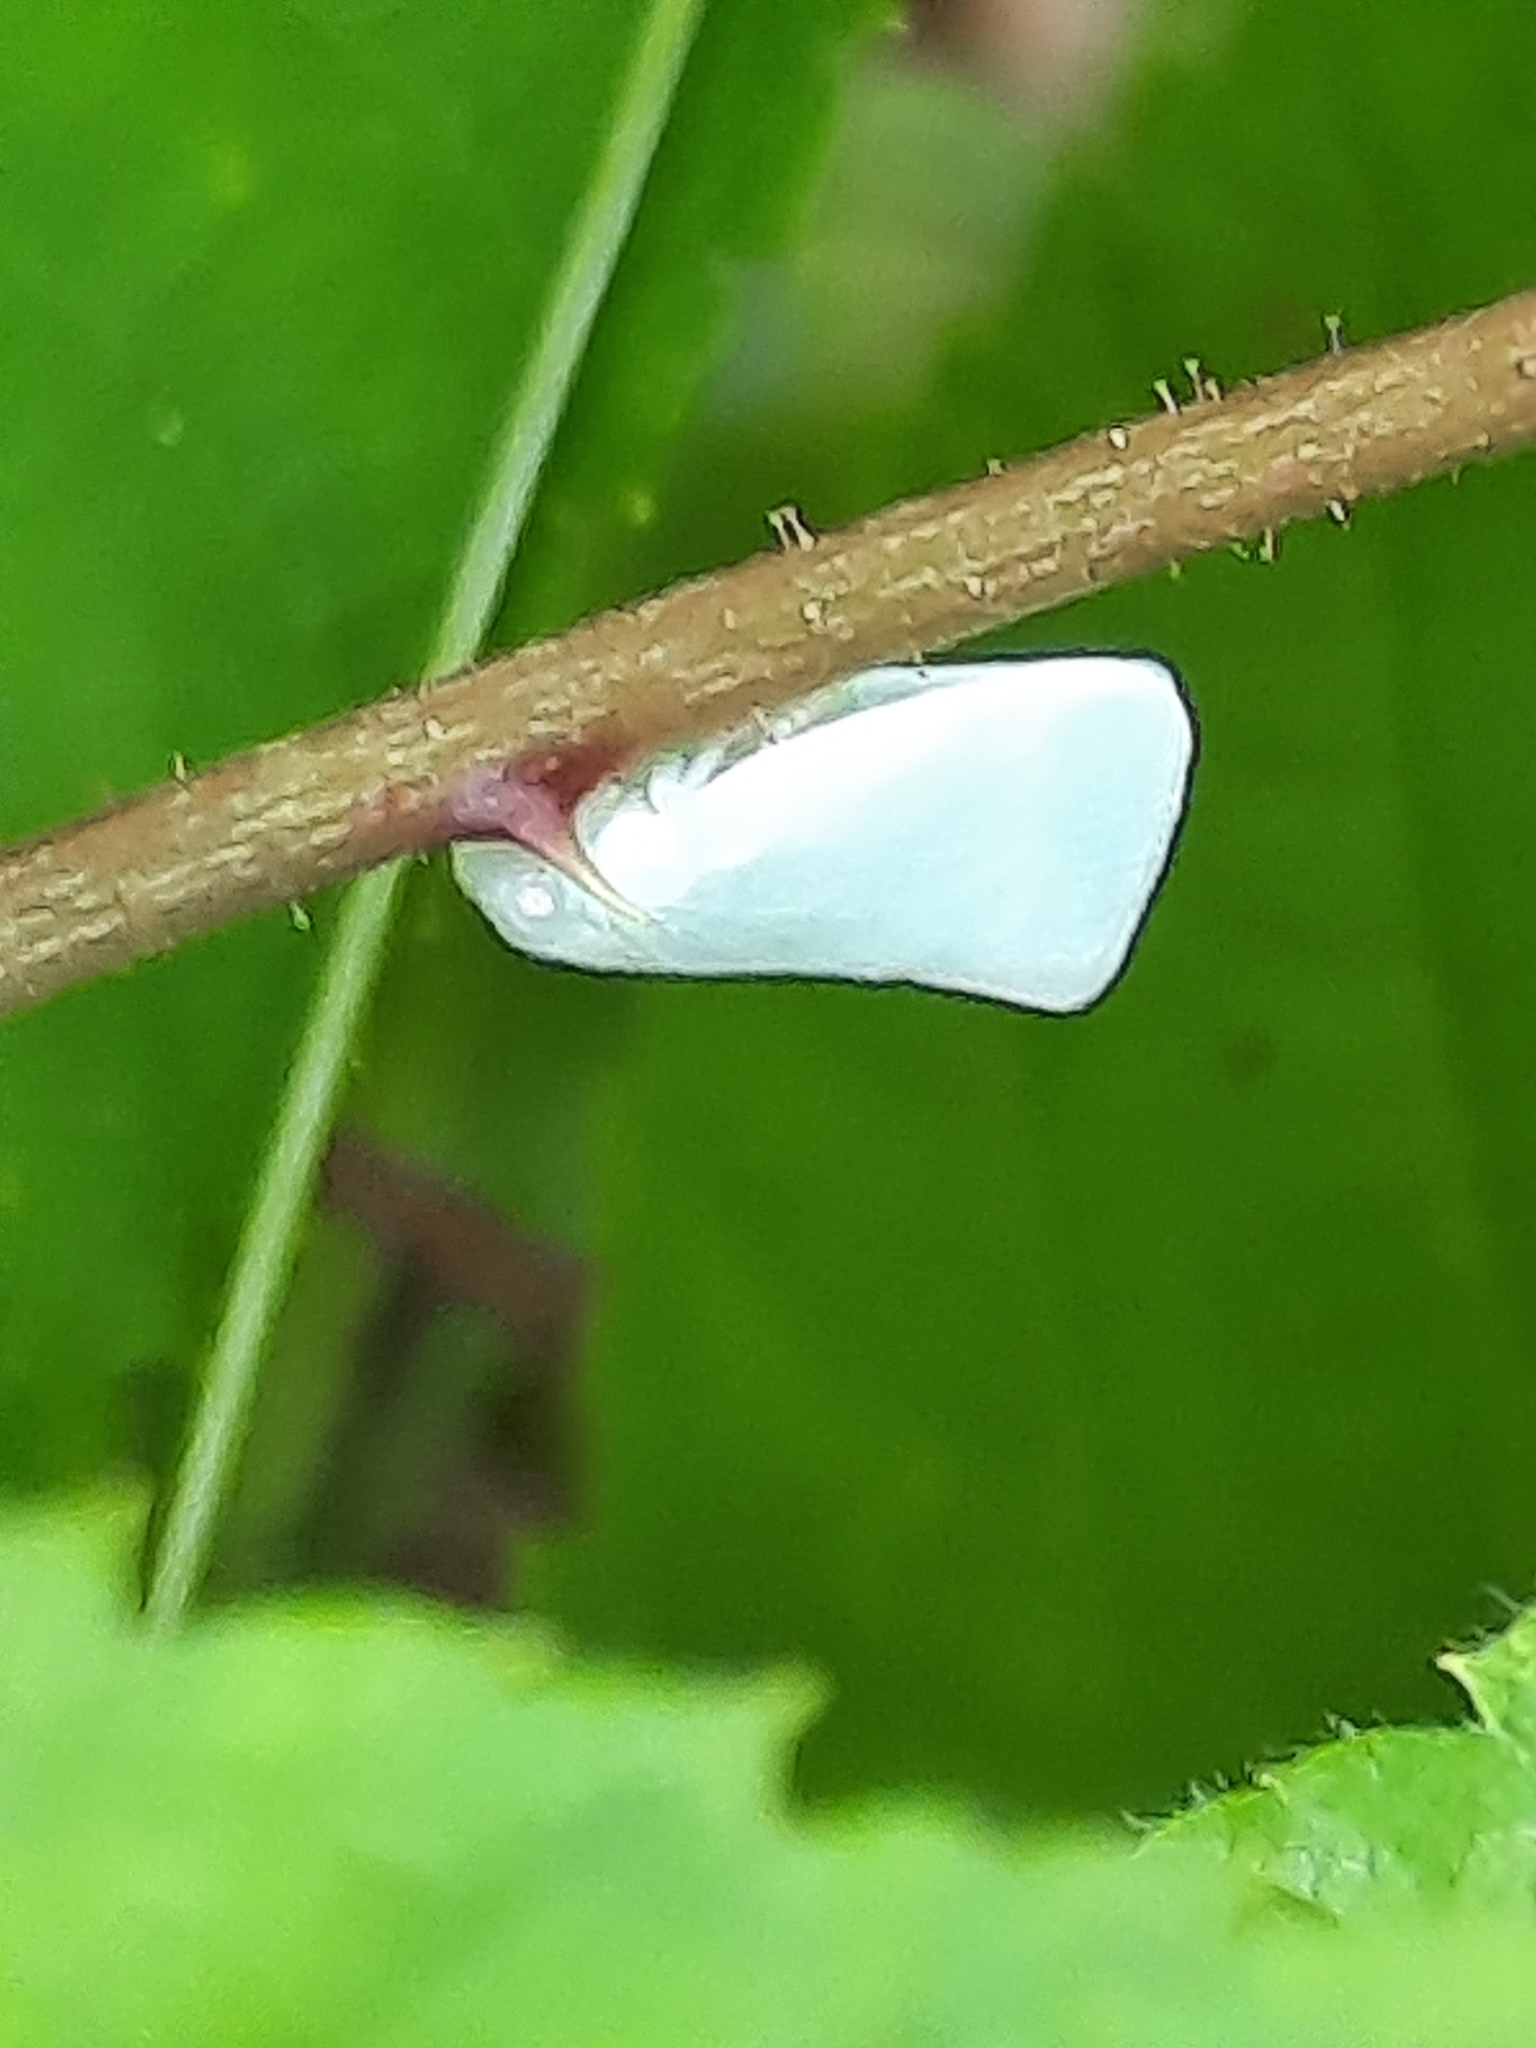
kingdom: Animalia
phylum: Arthropoda
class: Insecta
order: Hemiptera
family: Flatidae
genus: Flatormenis
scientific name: Flatormenis proxima
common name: Northern flatid planthopper
